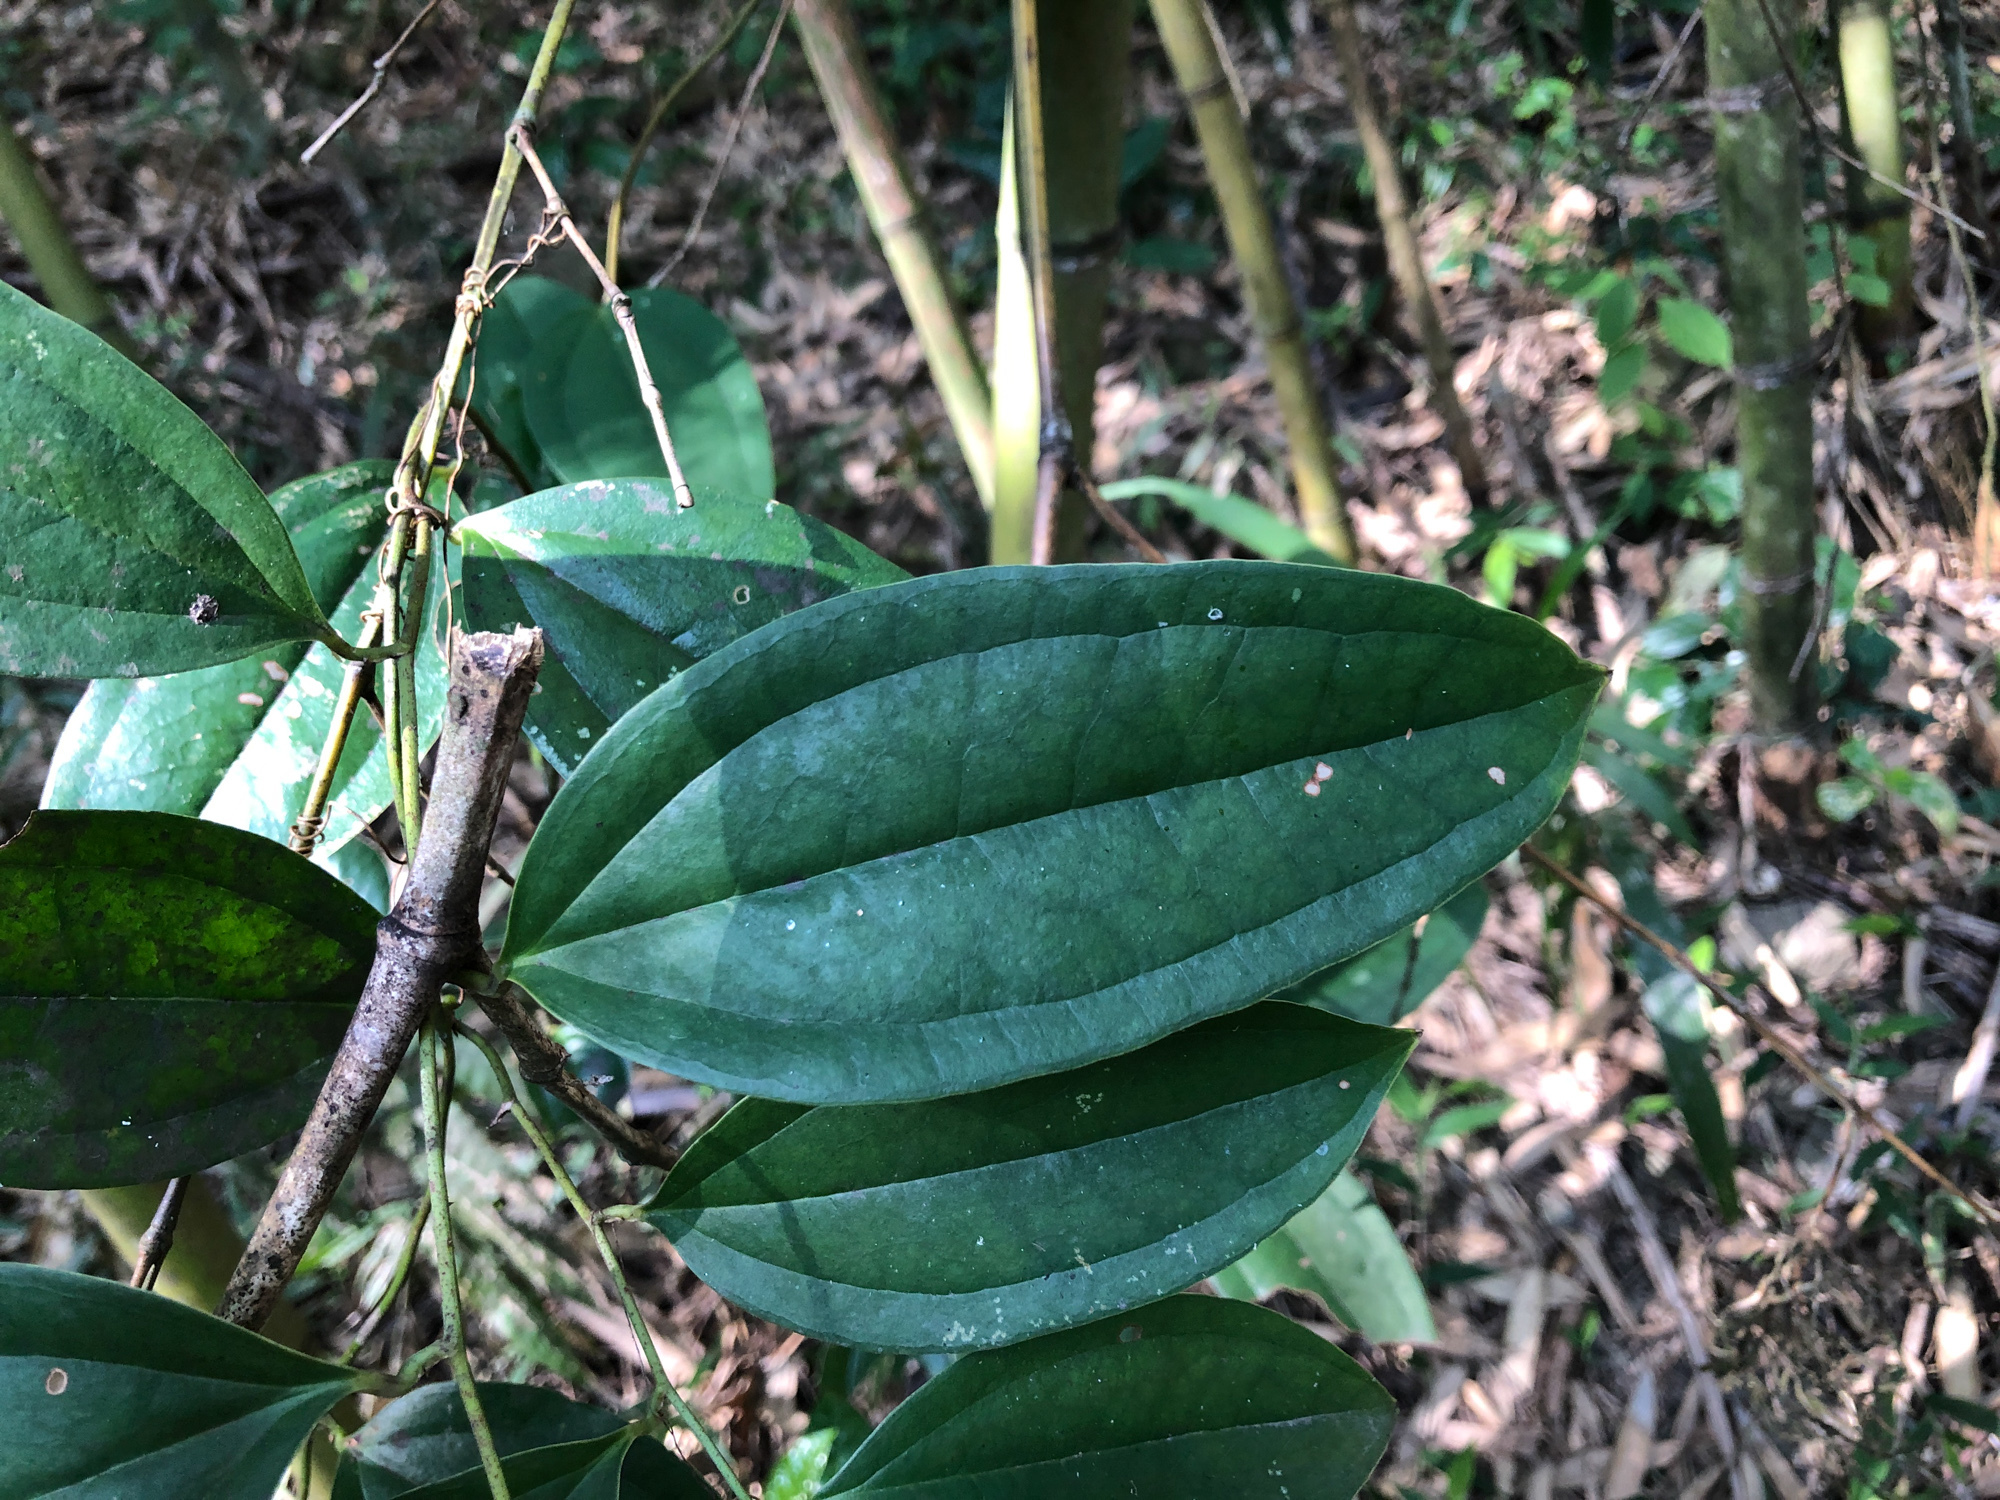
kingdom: Plantae
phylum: Tracheophyta
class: Liliopsida
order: Liliales
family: Smilacaceae
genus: Smilax
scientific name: Smilax aspericaulis
